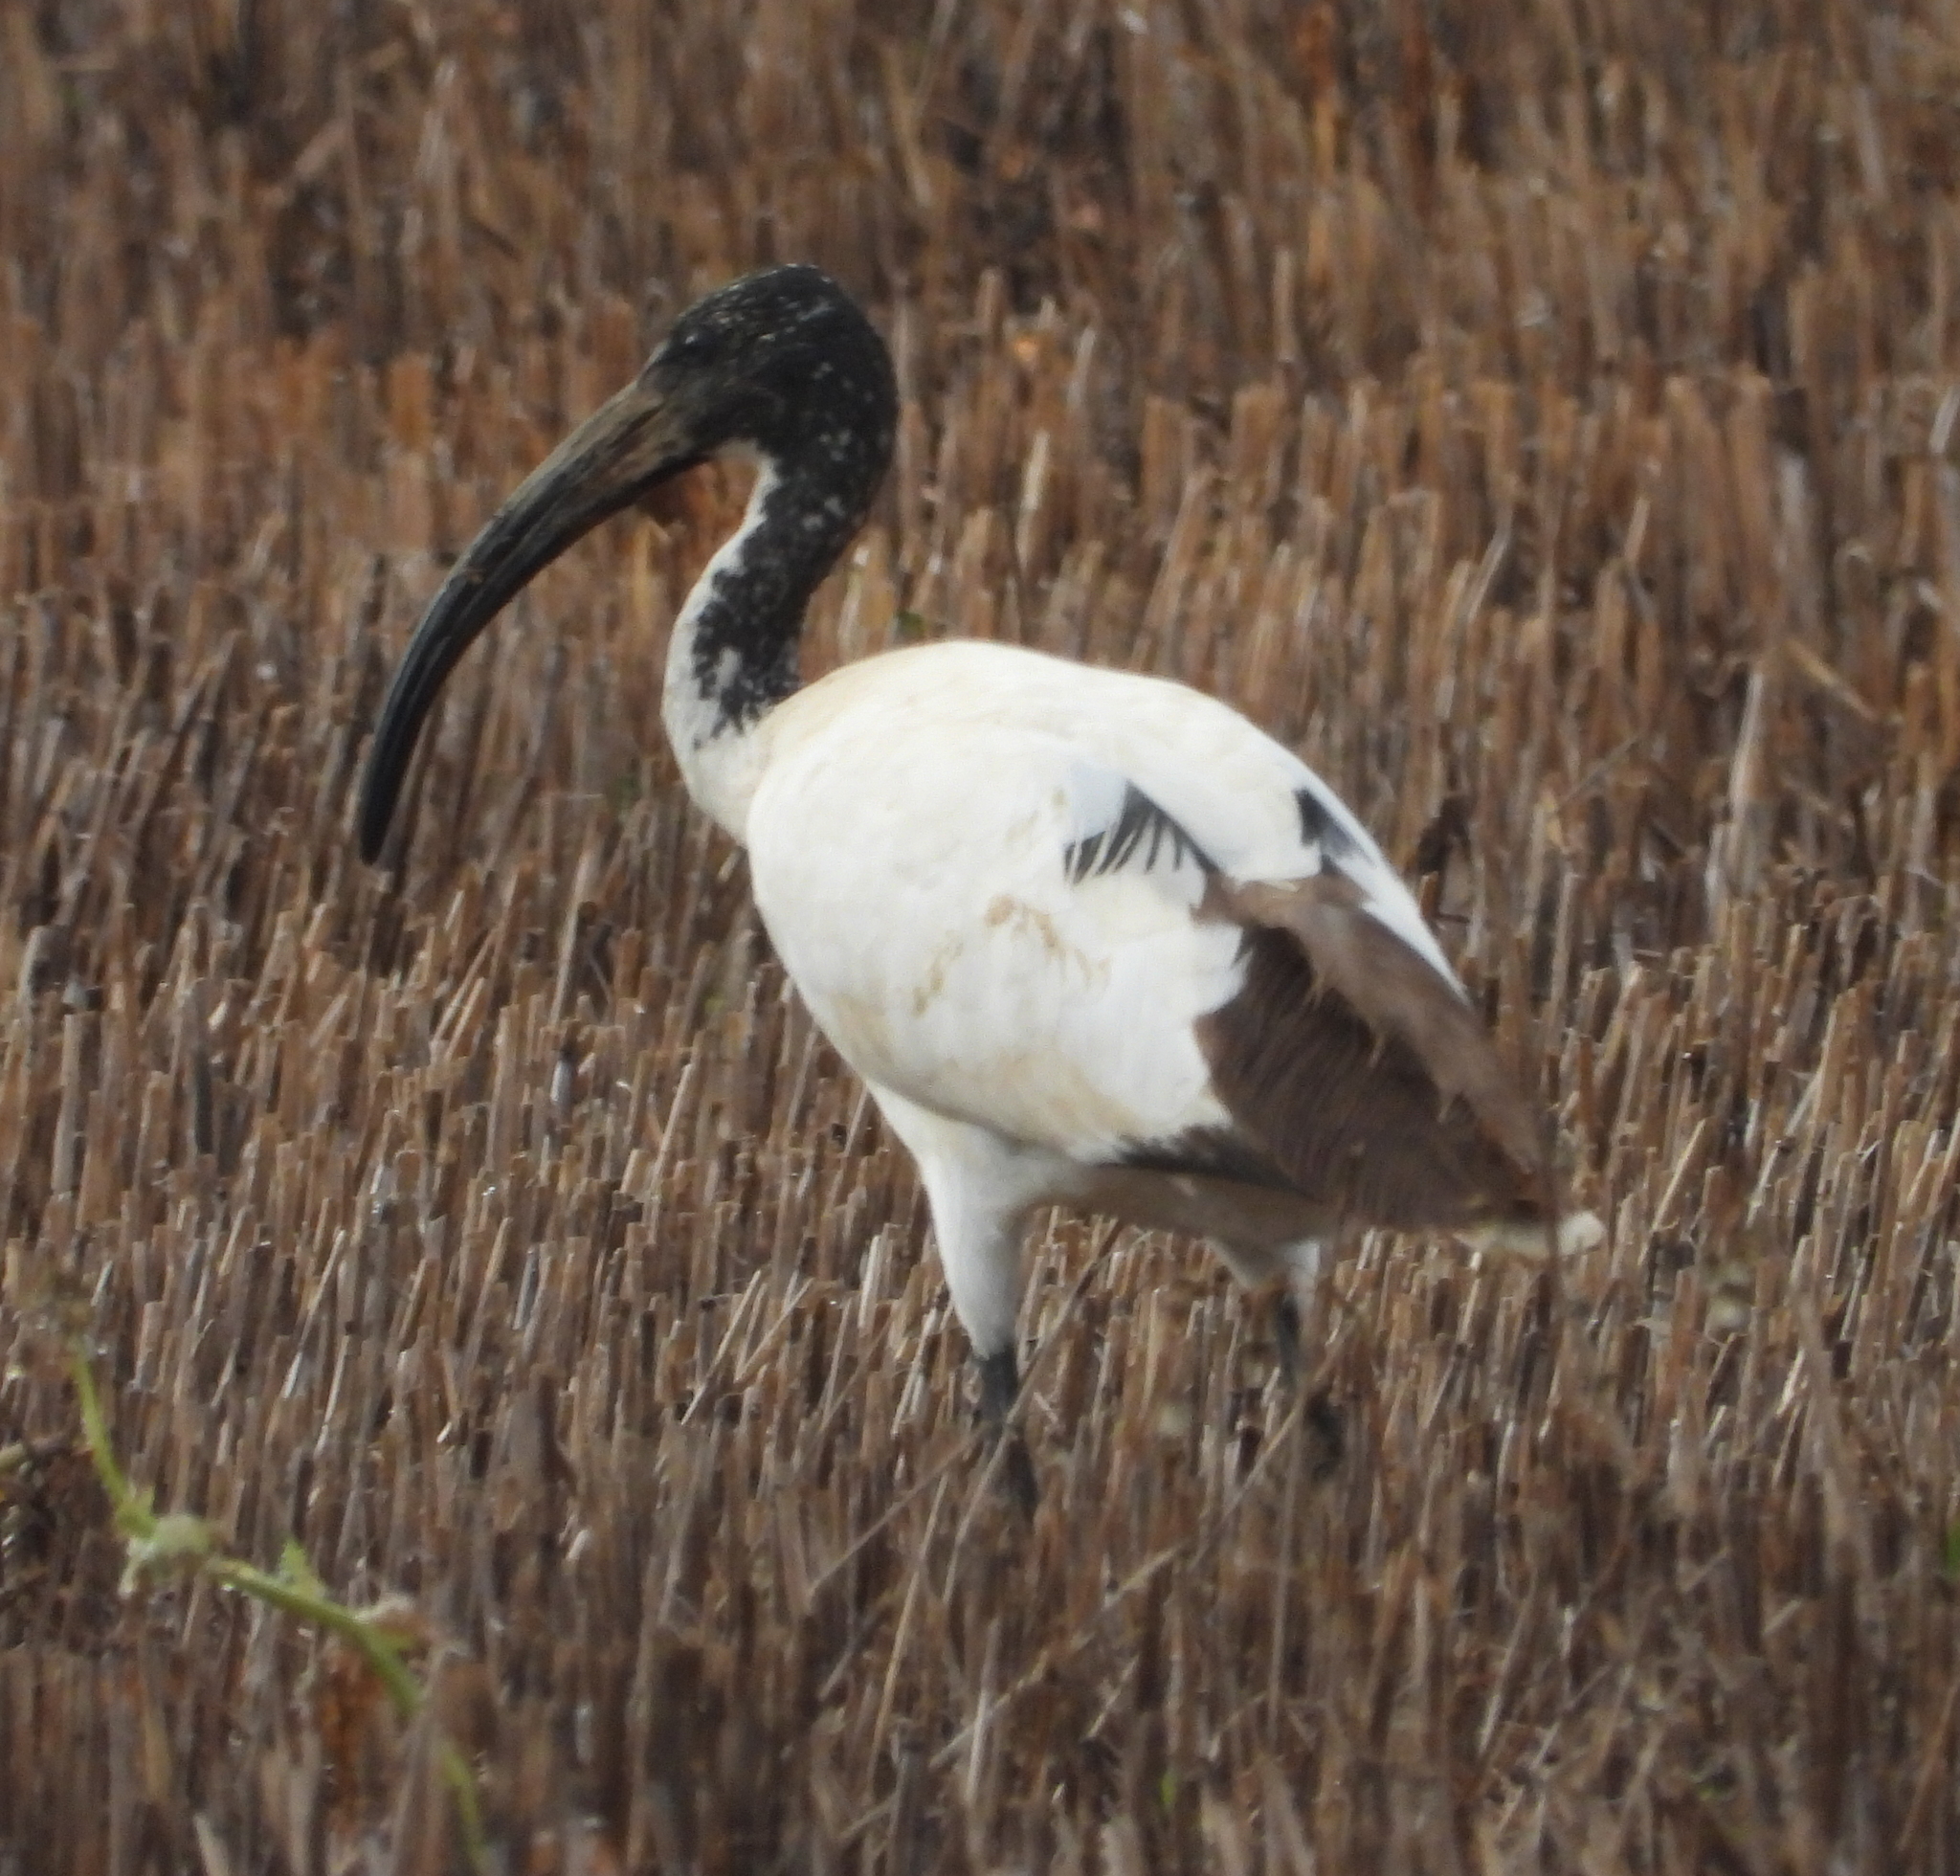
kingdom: Animalia
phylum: Chordata
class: Aves
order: Pelecaniformes
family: Threskiornithidae
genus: Threskiornis
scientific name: Threskiornis aethiopicus
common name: Sacred ibis
